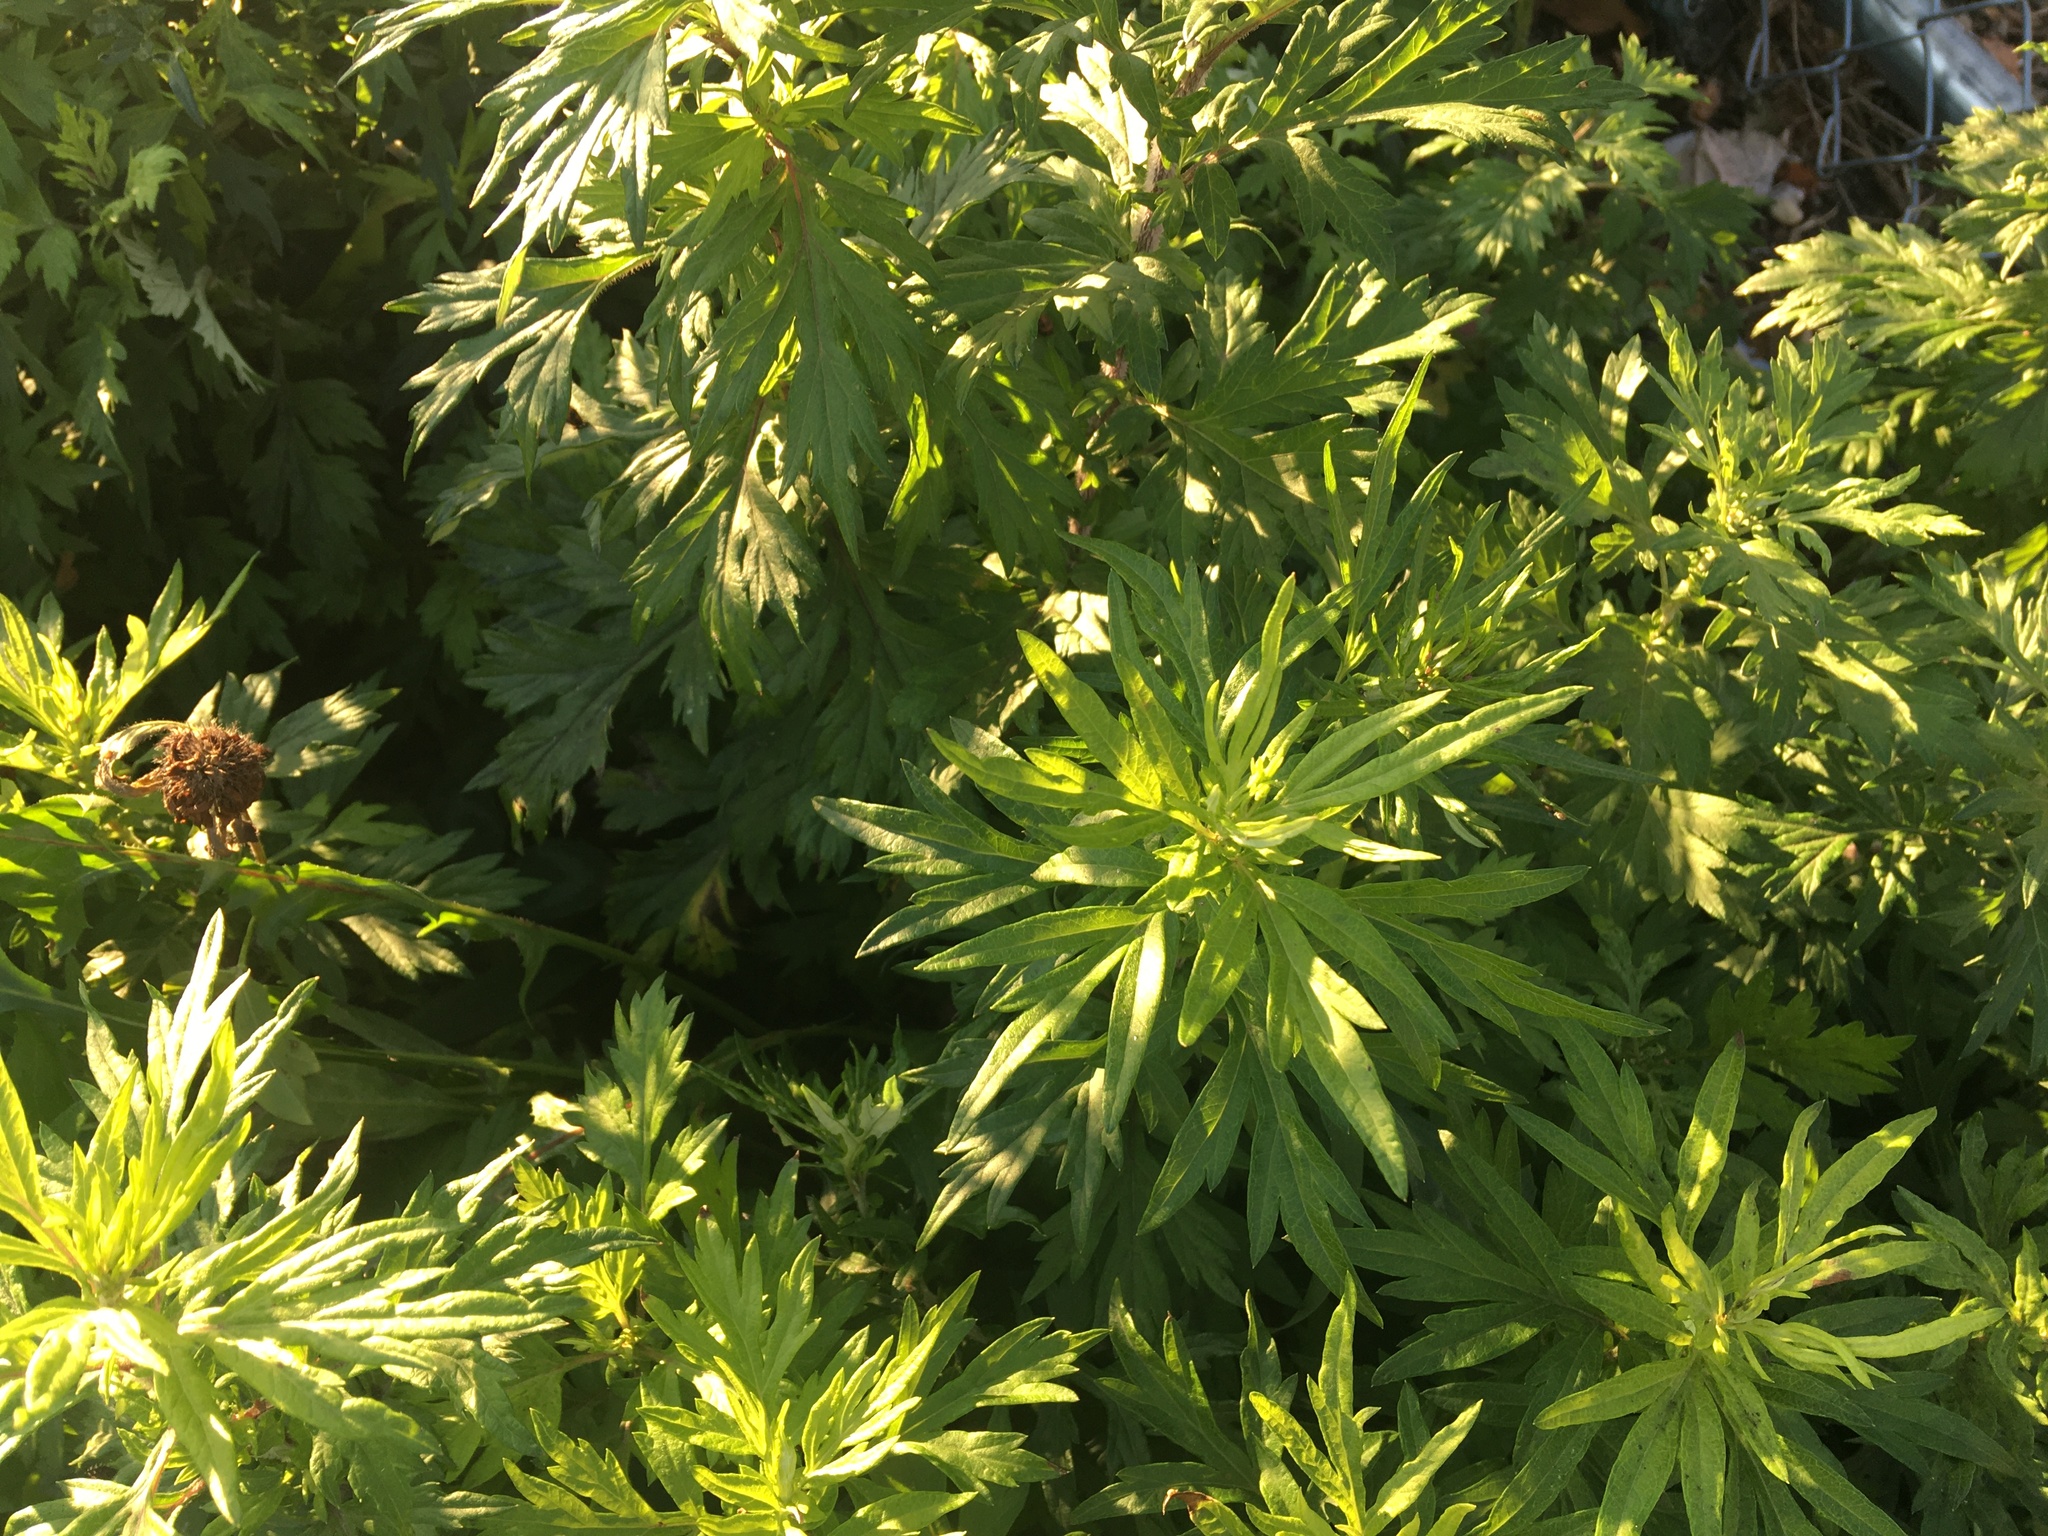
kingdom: Plantae
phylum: Tracheophyta
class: Magnoliopsida
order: Asterales
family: Asteraceae
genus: Artemisia
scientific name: Artemisia vulgaris
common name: Mugwort
